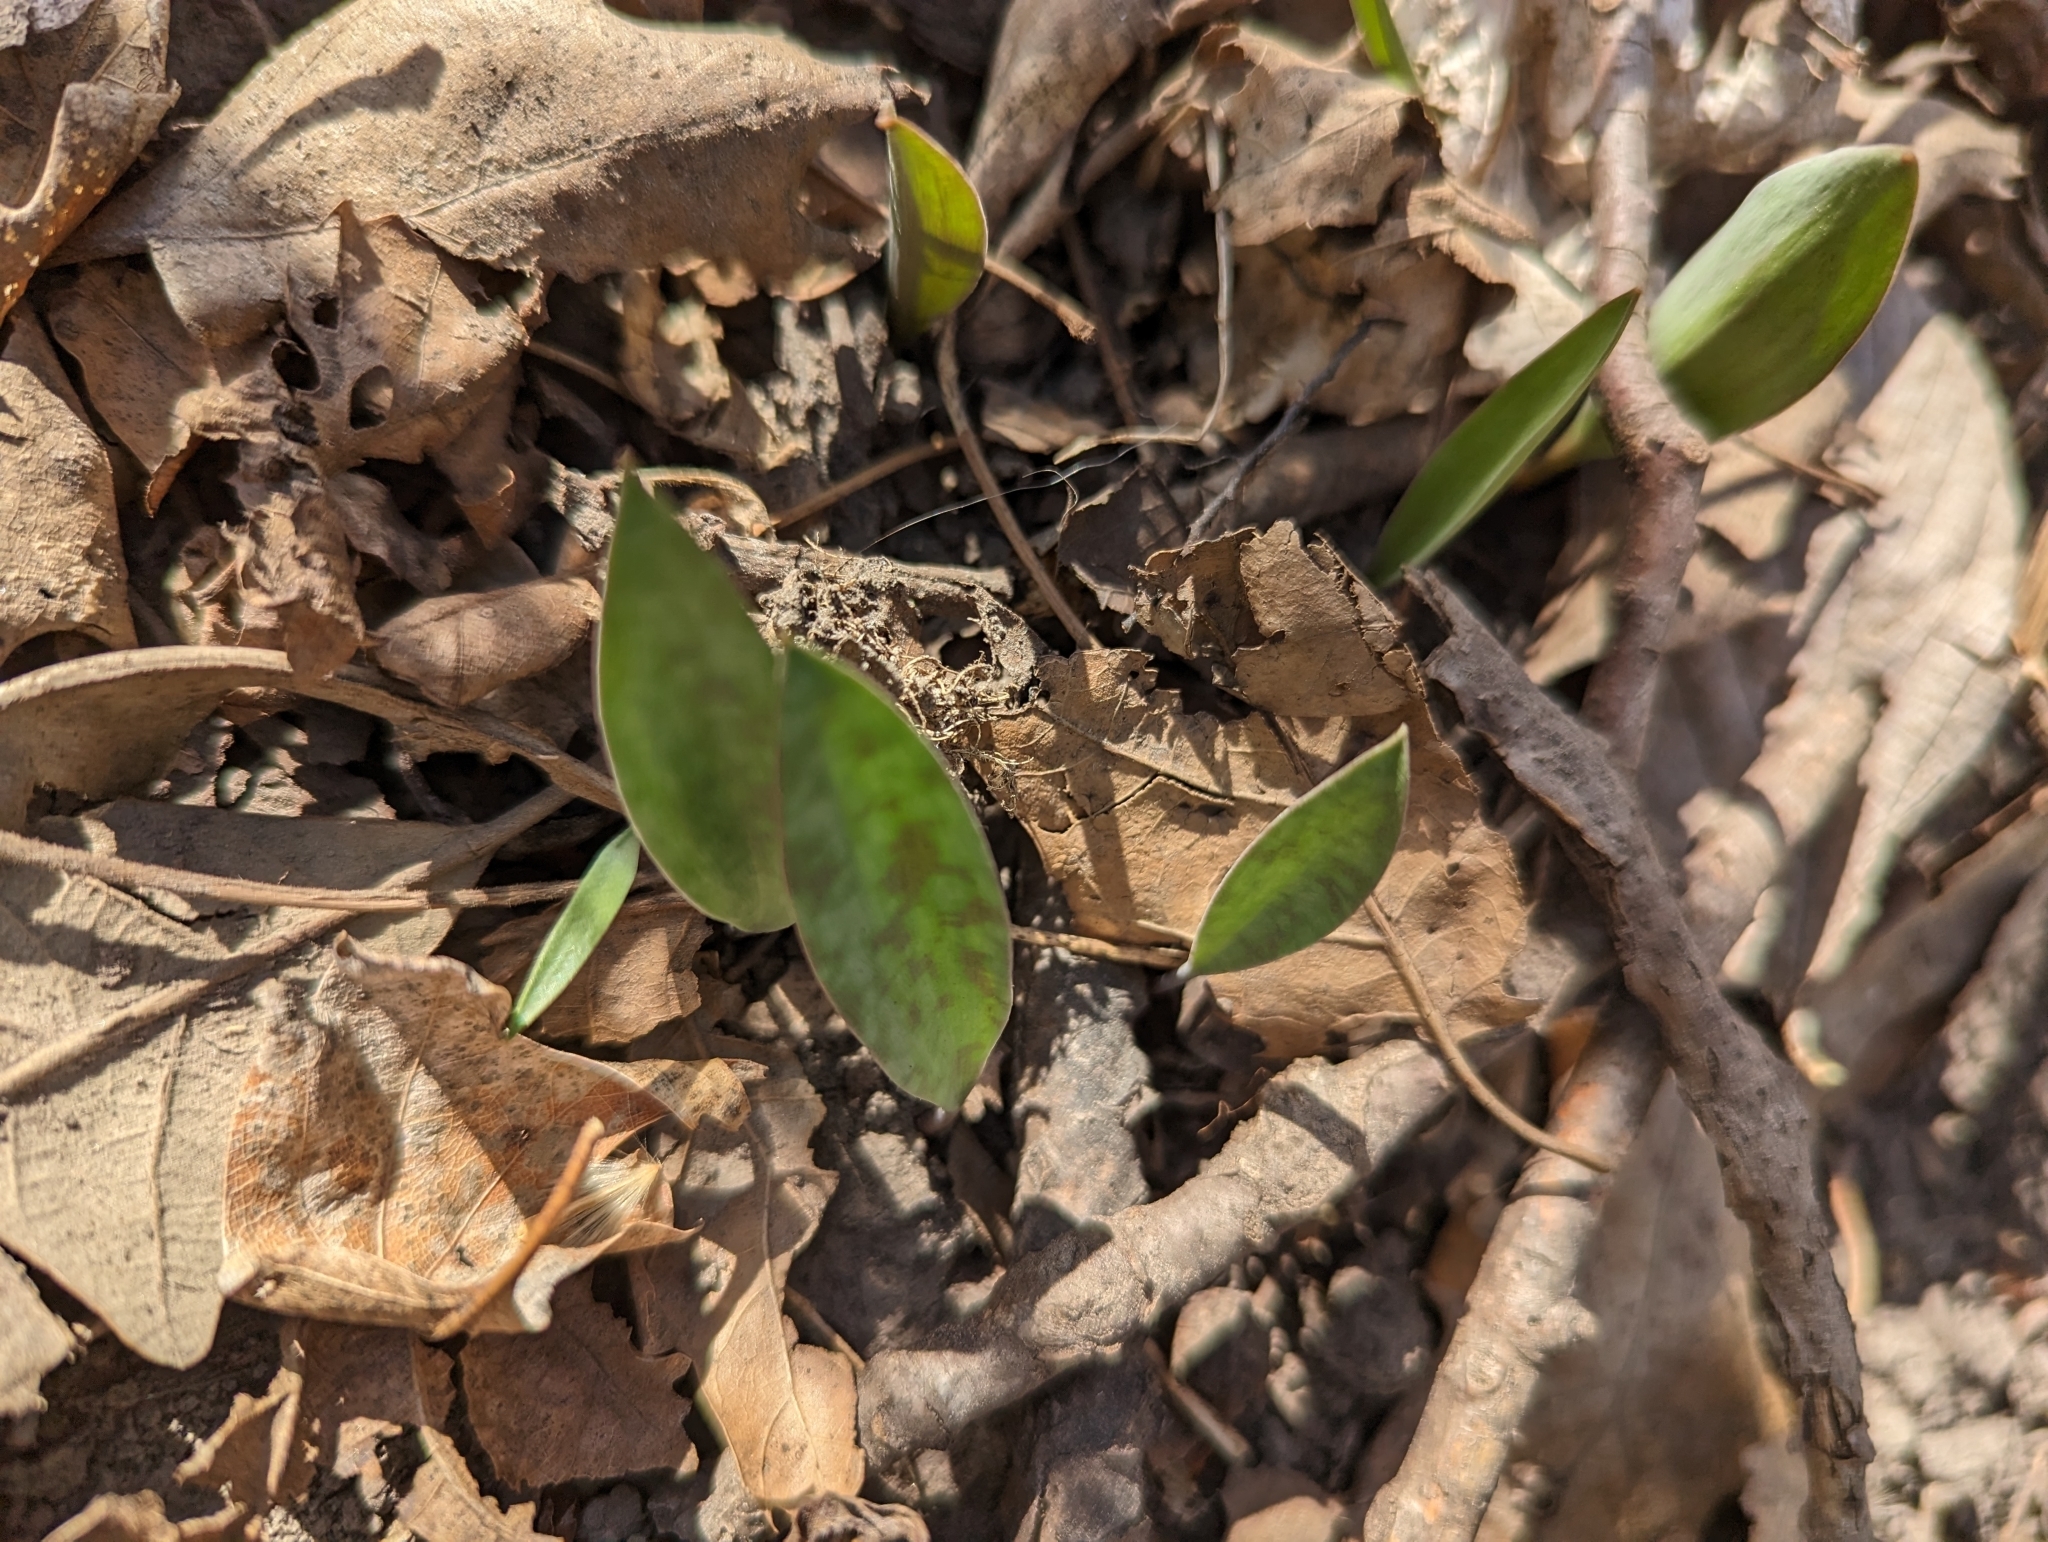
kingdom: Plantae
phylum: Tracheophyta
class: Liliopsida
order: Liliales
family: Liliaceae
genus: Erythronium
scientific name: Erythronium albidum
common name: White trout-lily
